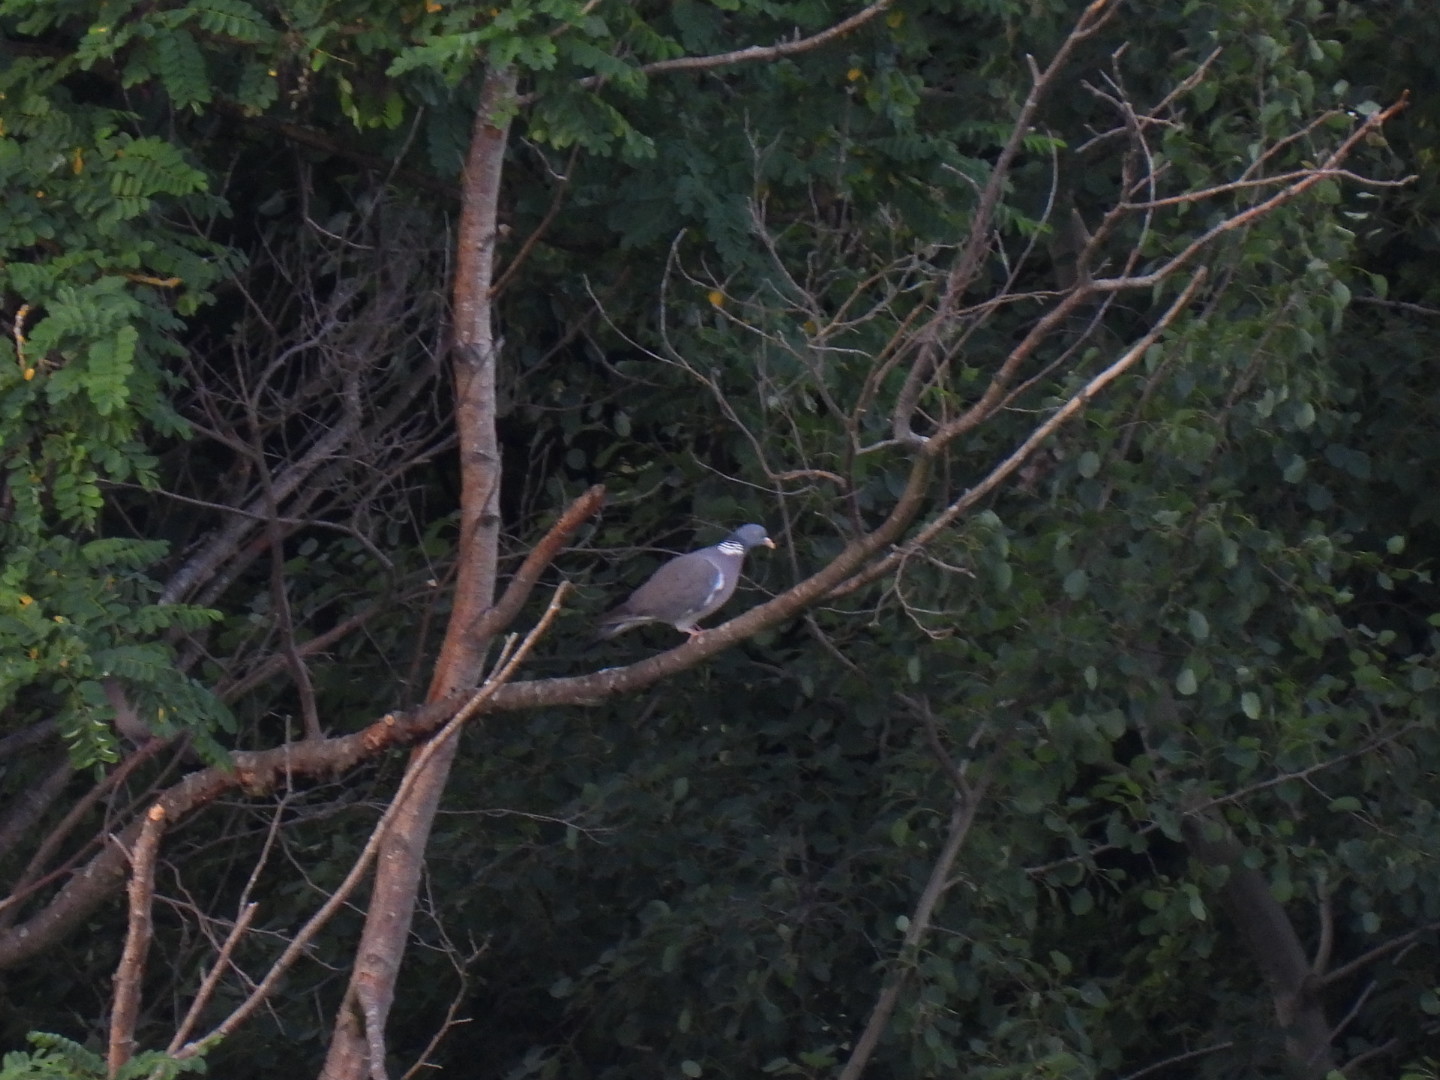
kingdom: Animalia
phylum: Chordata
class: Aves
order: Columbiformes
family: Columbidae
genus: Columba
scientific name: Columba palumbus
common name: Common wood pigeon
